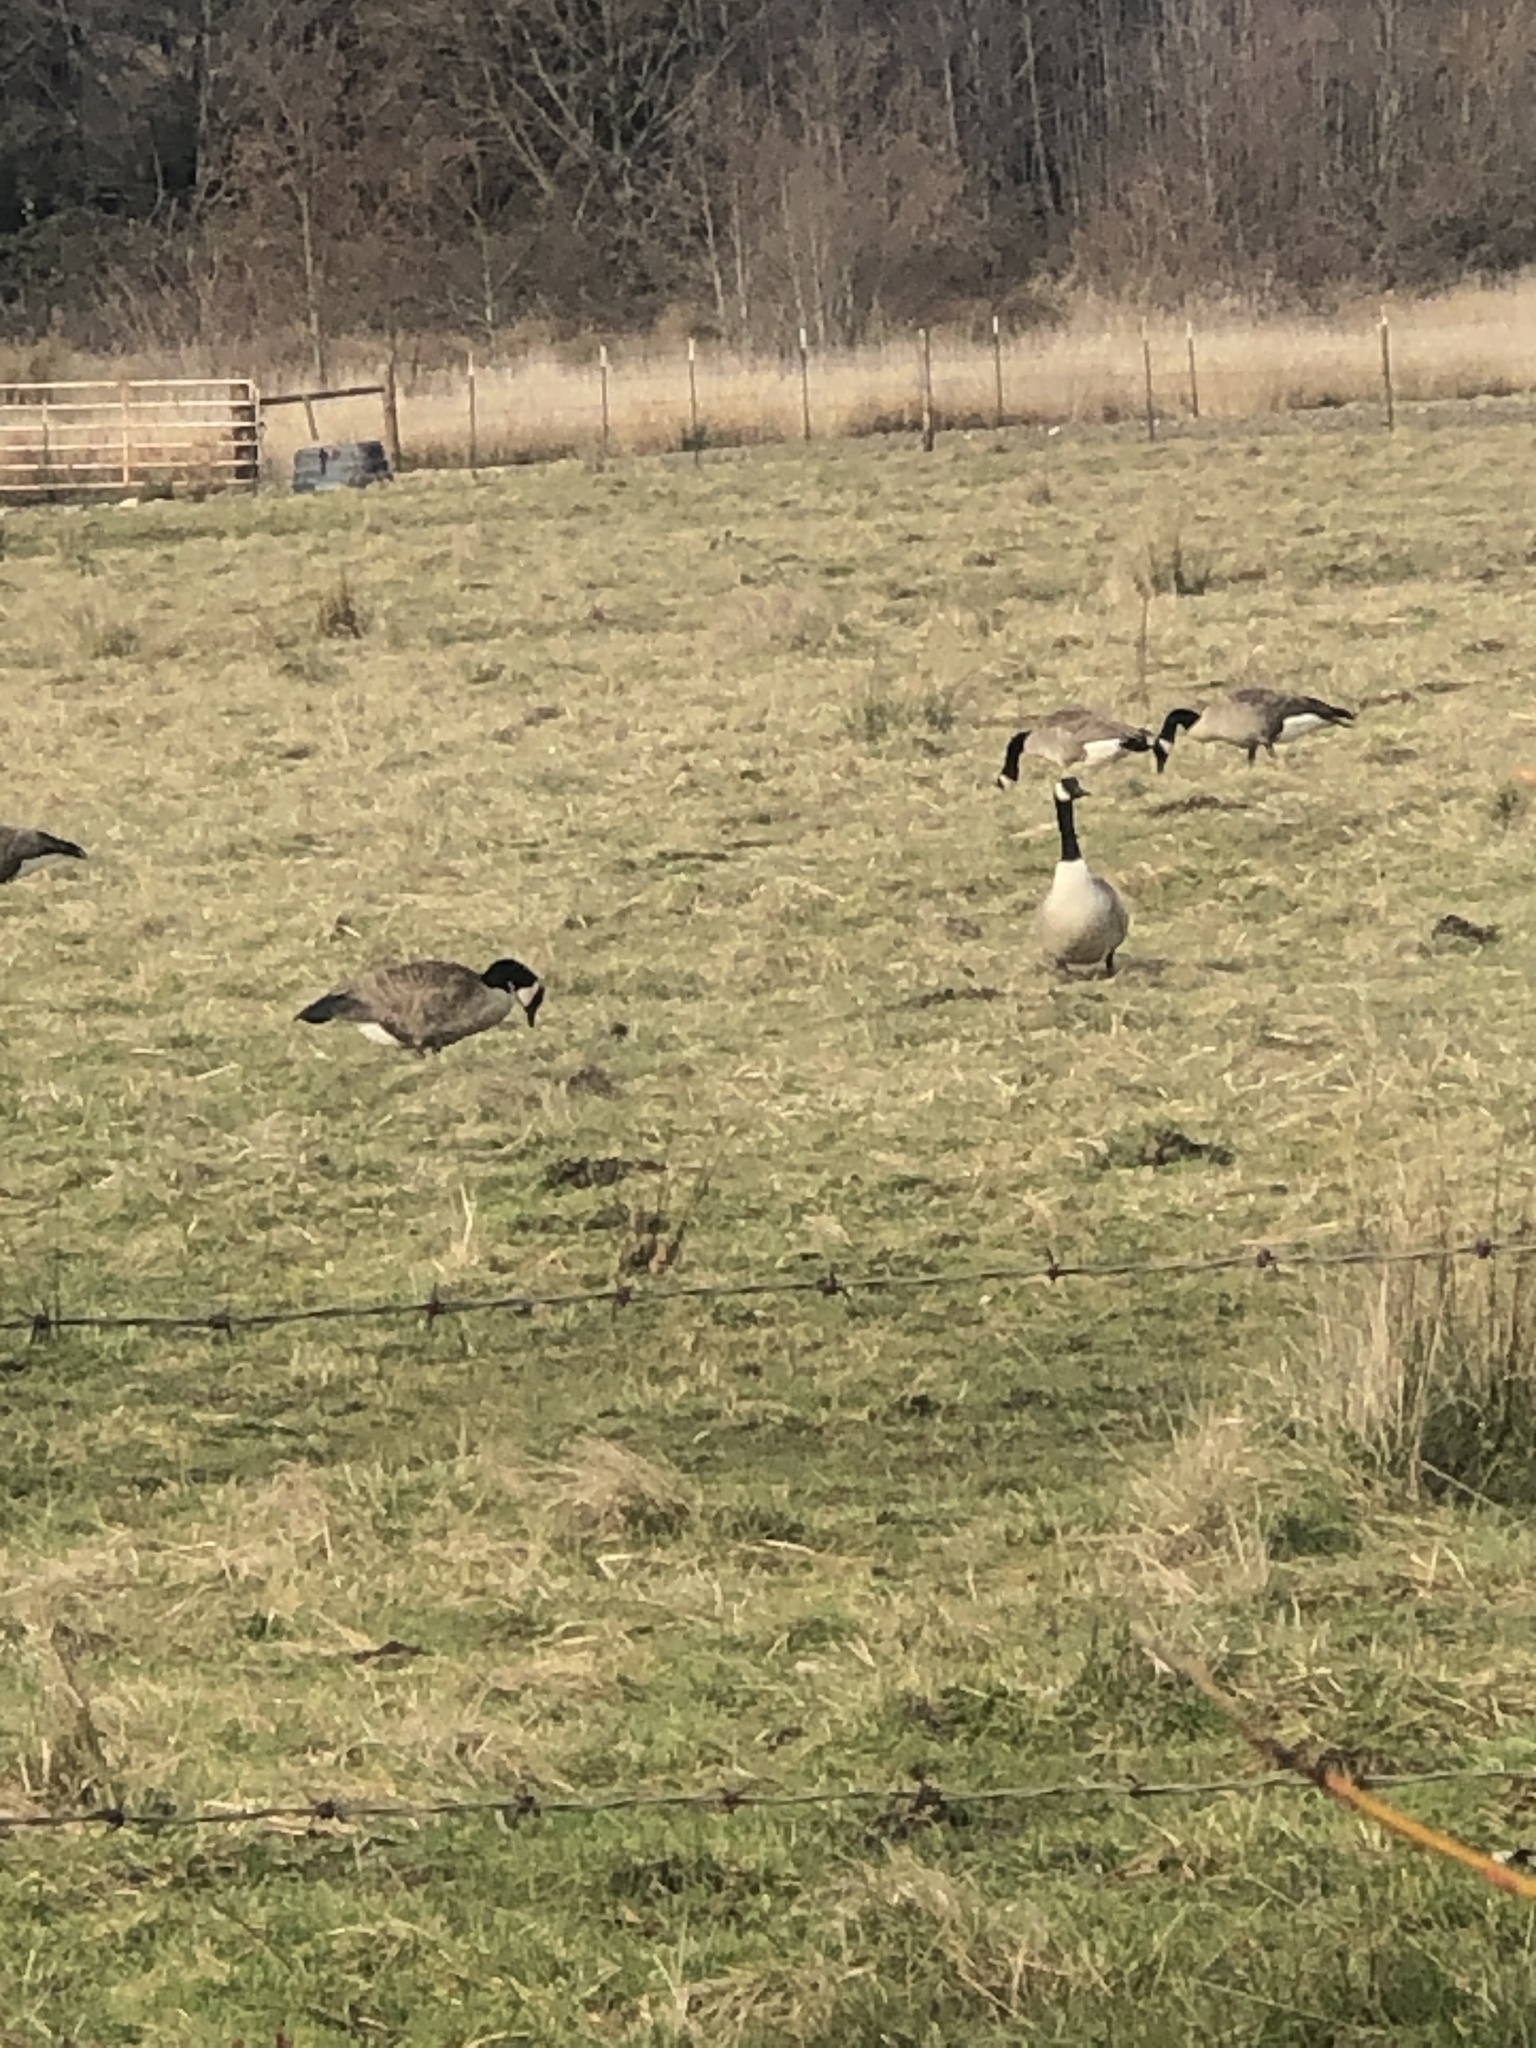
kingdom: Animalia
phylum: Chordata
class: Aves
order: Anseriformes
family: Anatidae
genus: Branta
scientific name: Branta canadensis
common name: Canada goose
